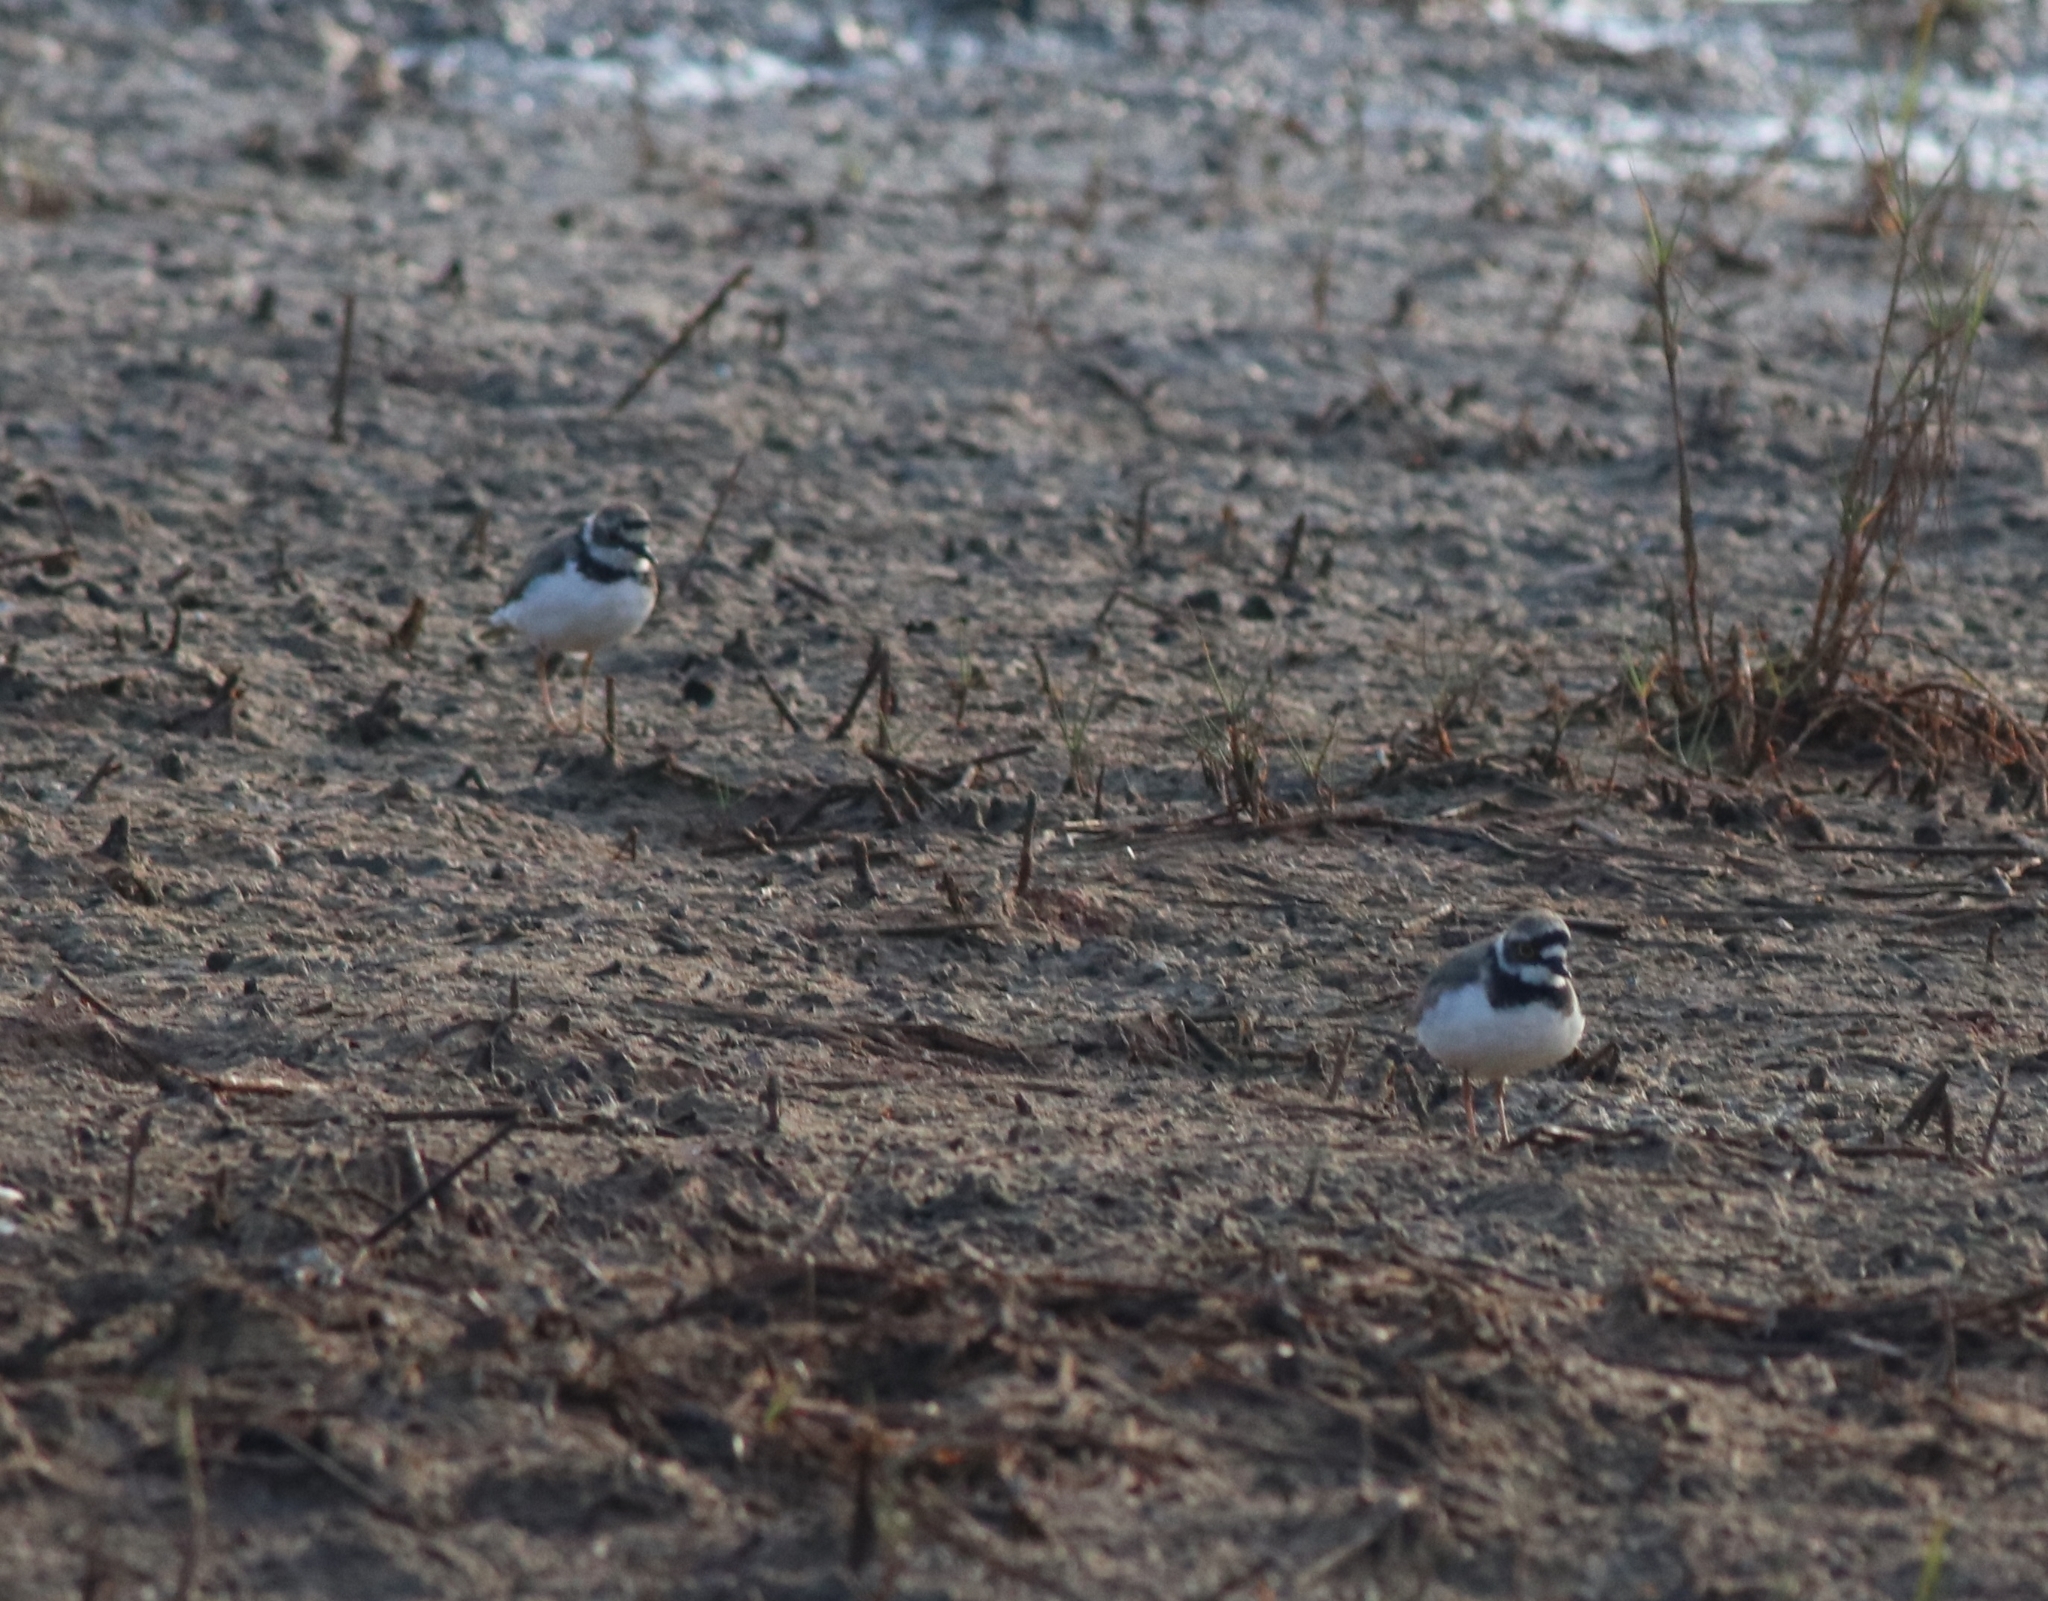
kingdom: Animalia
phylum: Chordata
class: Aves
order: Charadriiformes
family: Charadriidae
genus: Charadrius
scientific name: Charadrius dubius
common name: Little ringed plover
